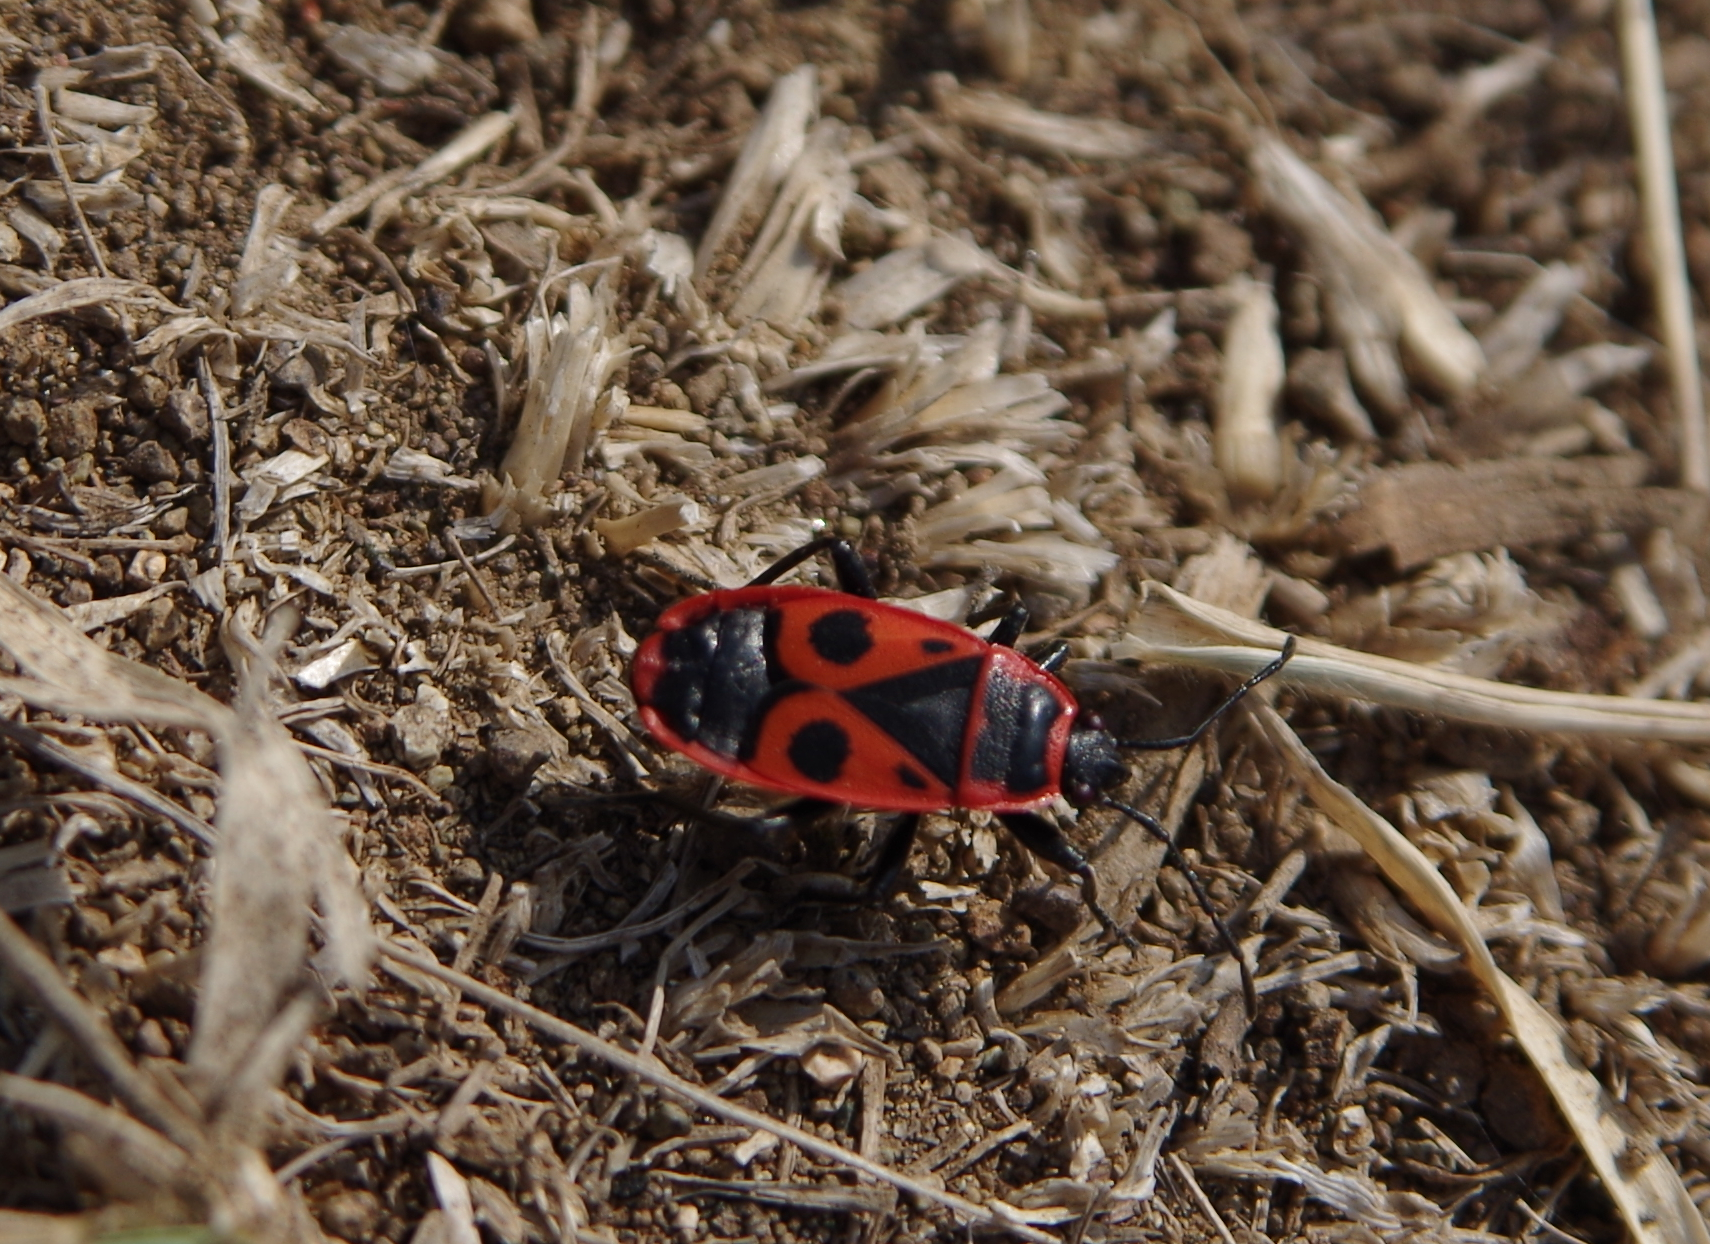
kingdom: Animalia
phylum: Arthropoda
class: Insecta
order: Hemiptera
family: Pyrrhocoridae
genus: Pyrrhocoris
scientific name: Pyrrhocoris apterus
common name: Firebug
